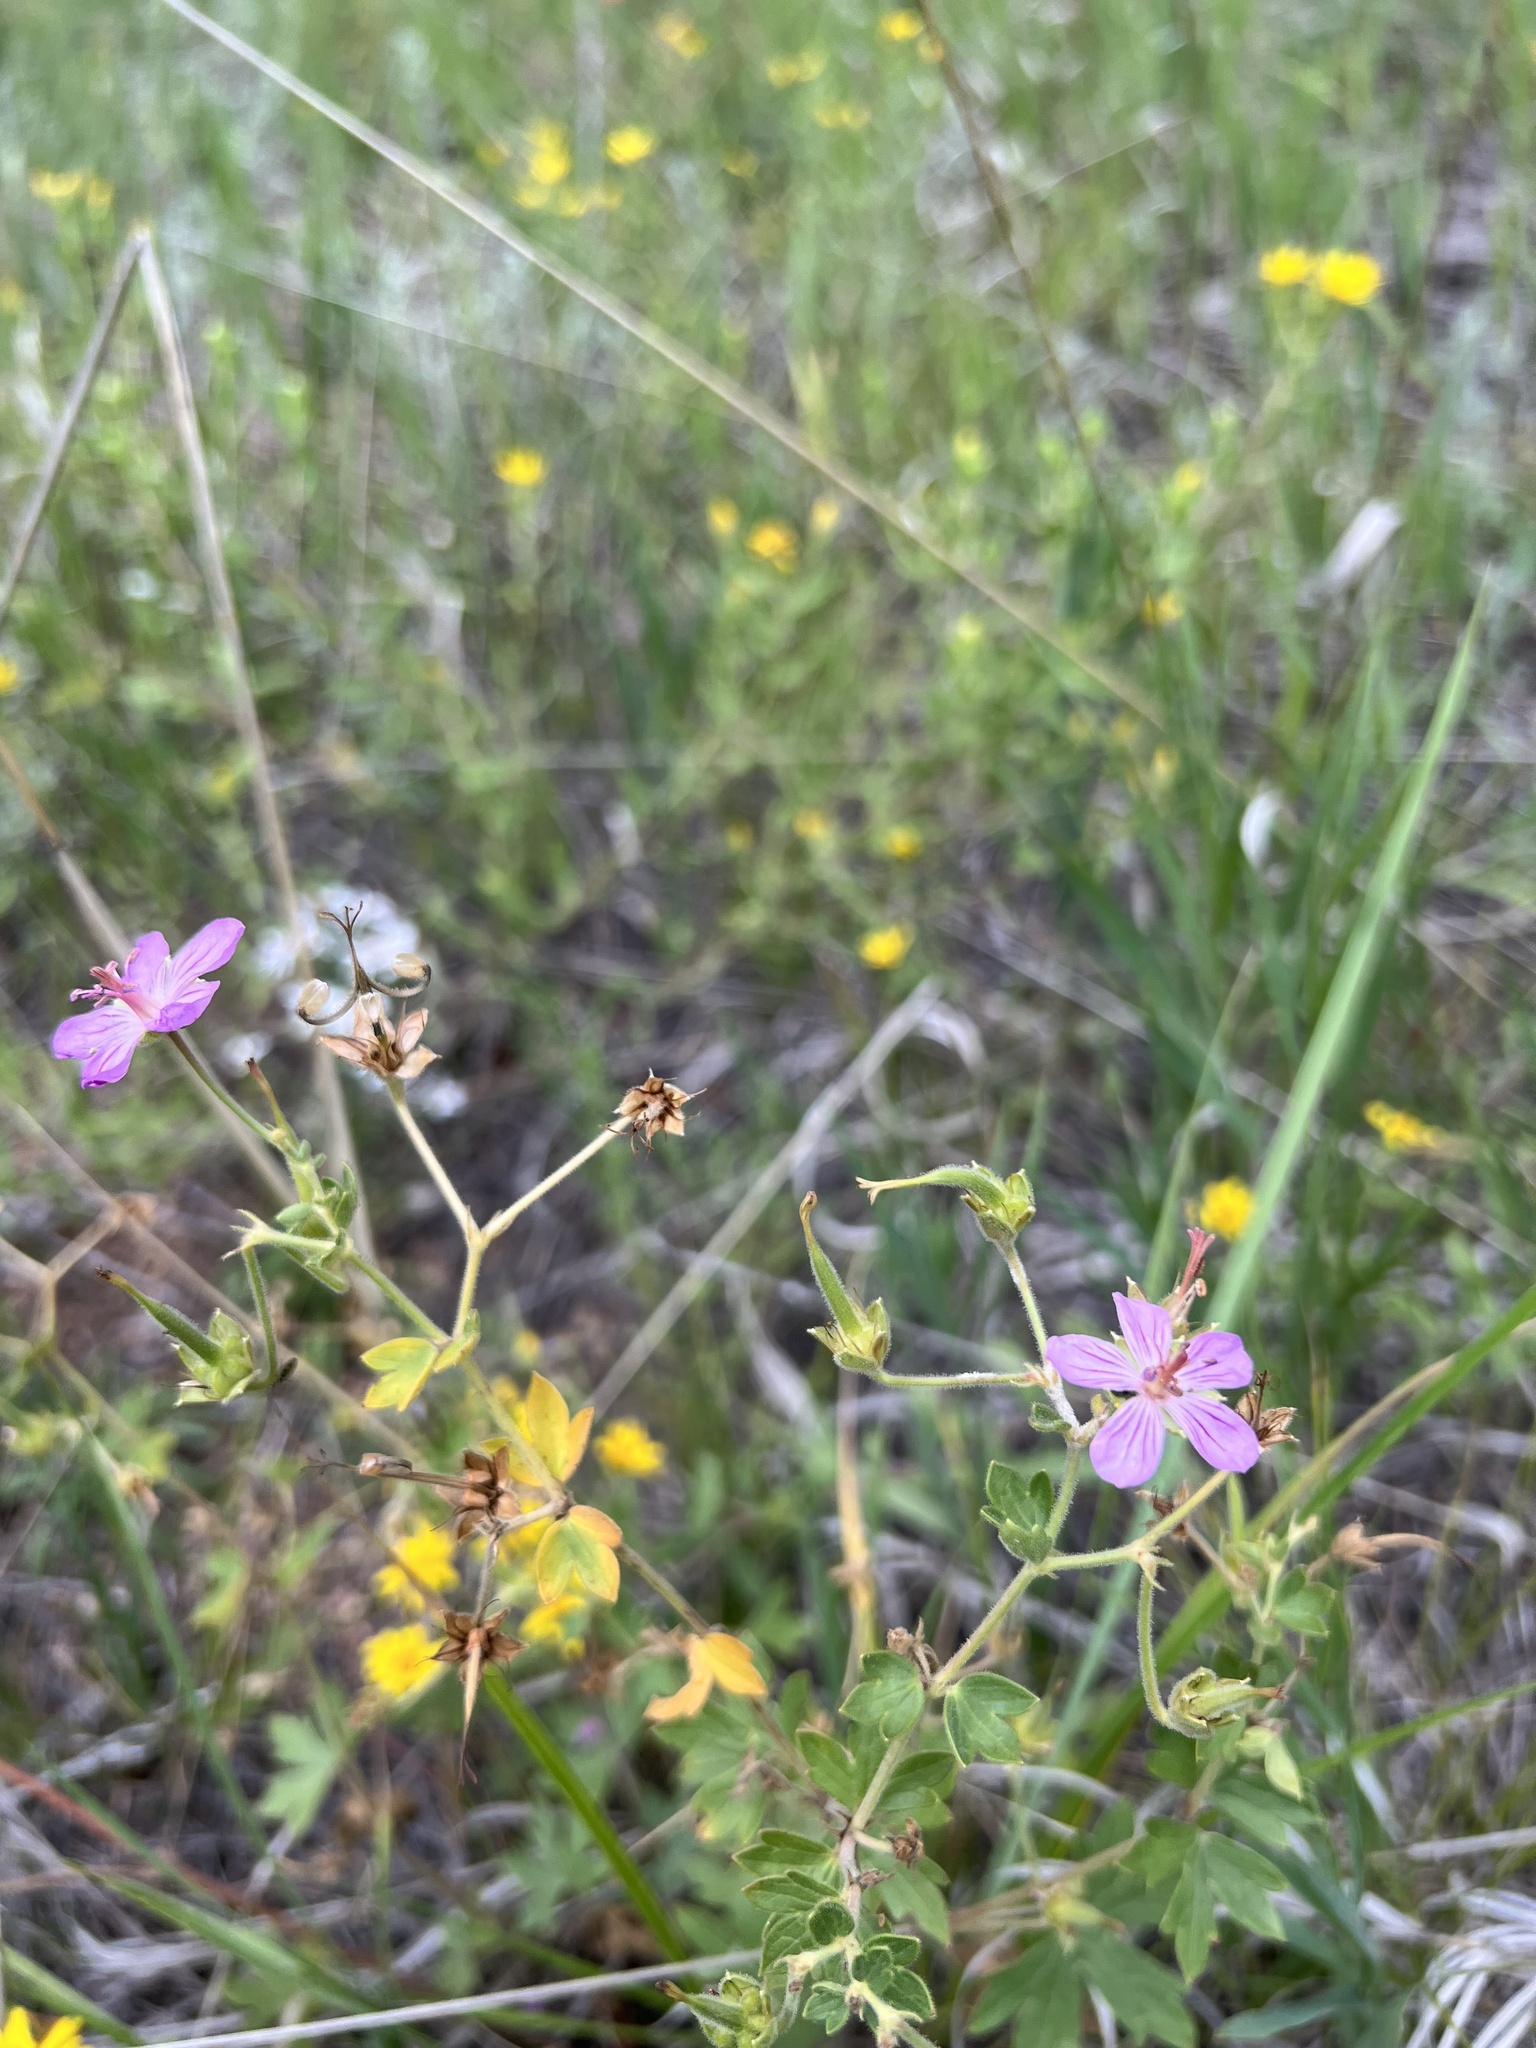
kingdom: Plantae
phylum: Tracheophyta
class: Magnoliopsida
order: Geraniales
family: Geraniaceae
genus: Geranium
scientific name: Geranium caespitosum
